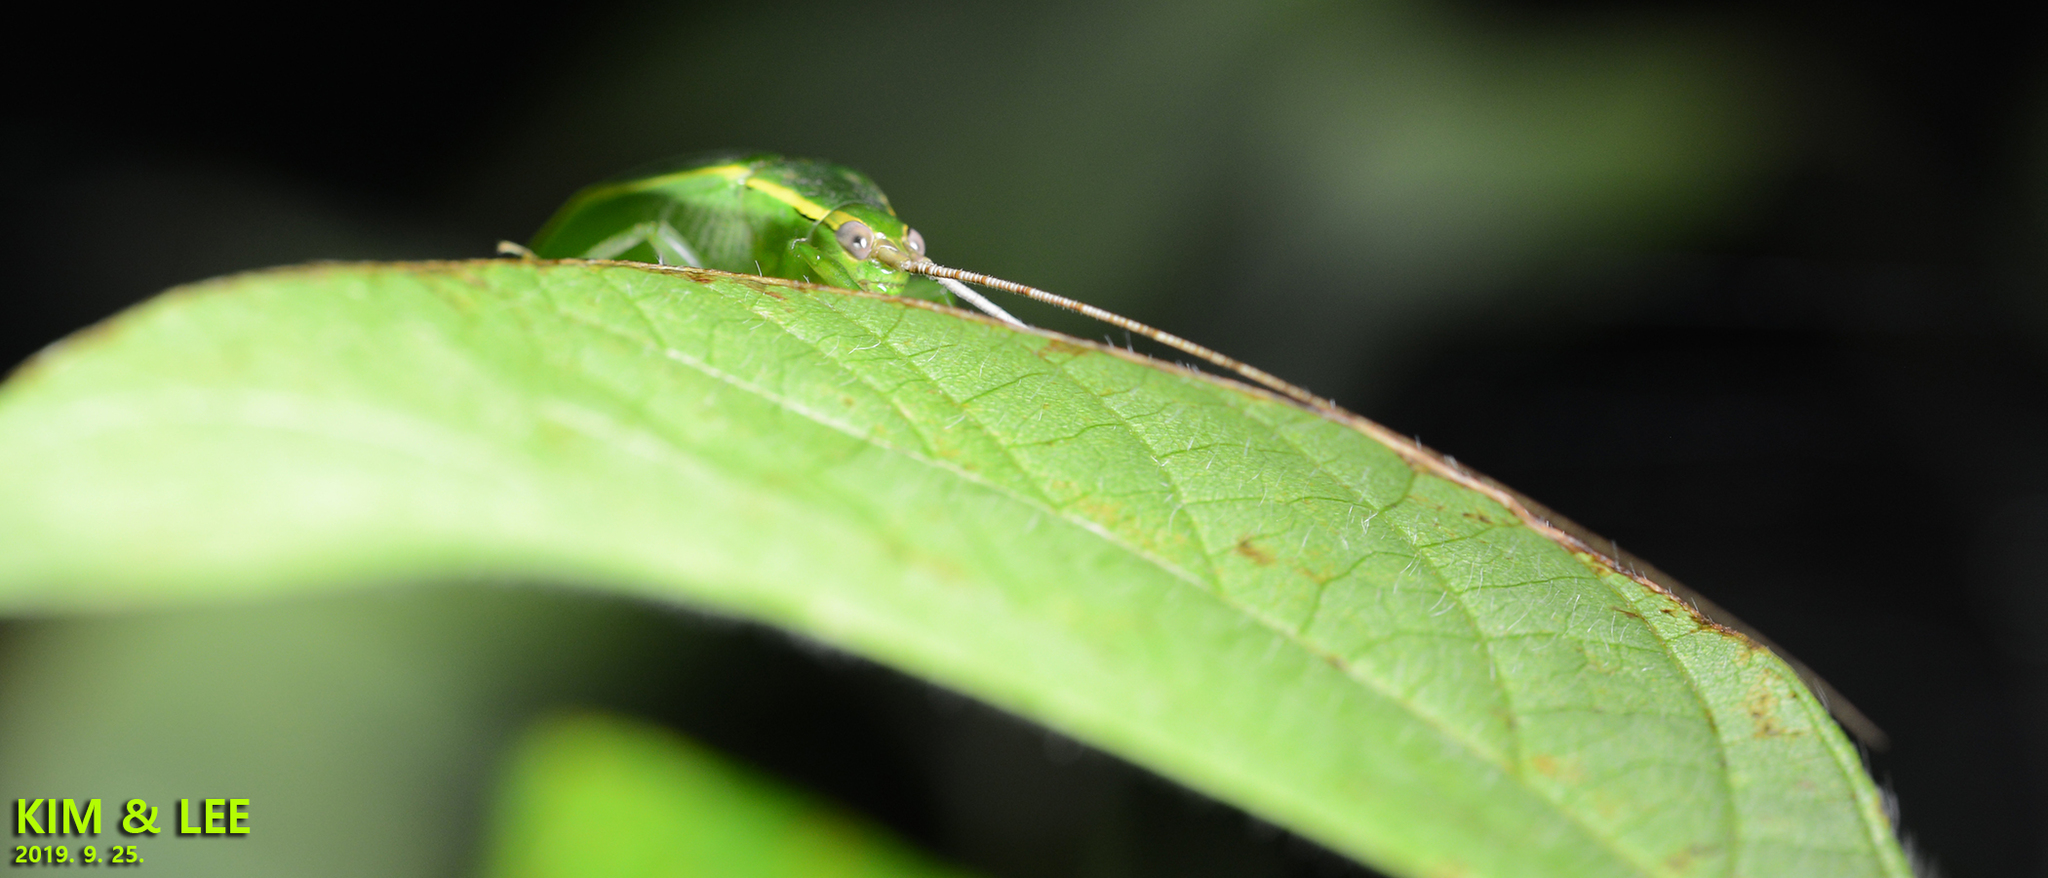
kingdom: Animalia
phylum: Arthropoda
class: Insecta
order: Orthoptera
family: Gryllidae
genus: Truljalia
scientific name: Truljalia hibinonis
